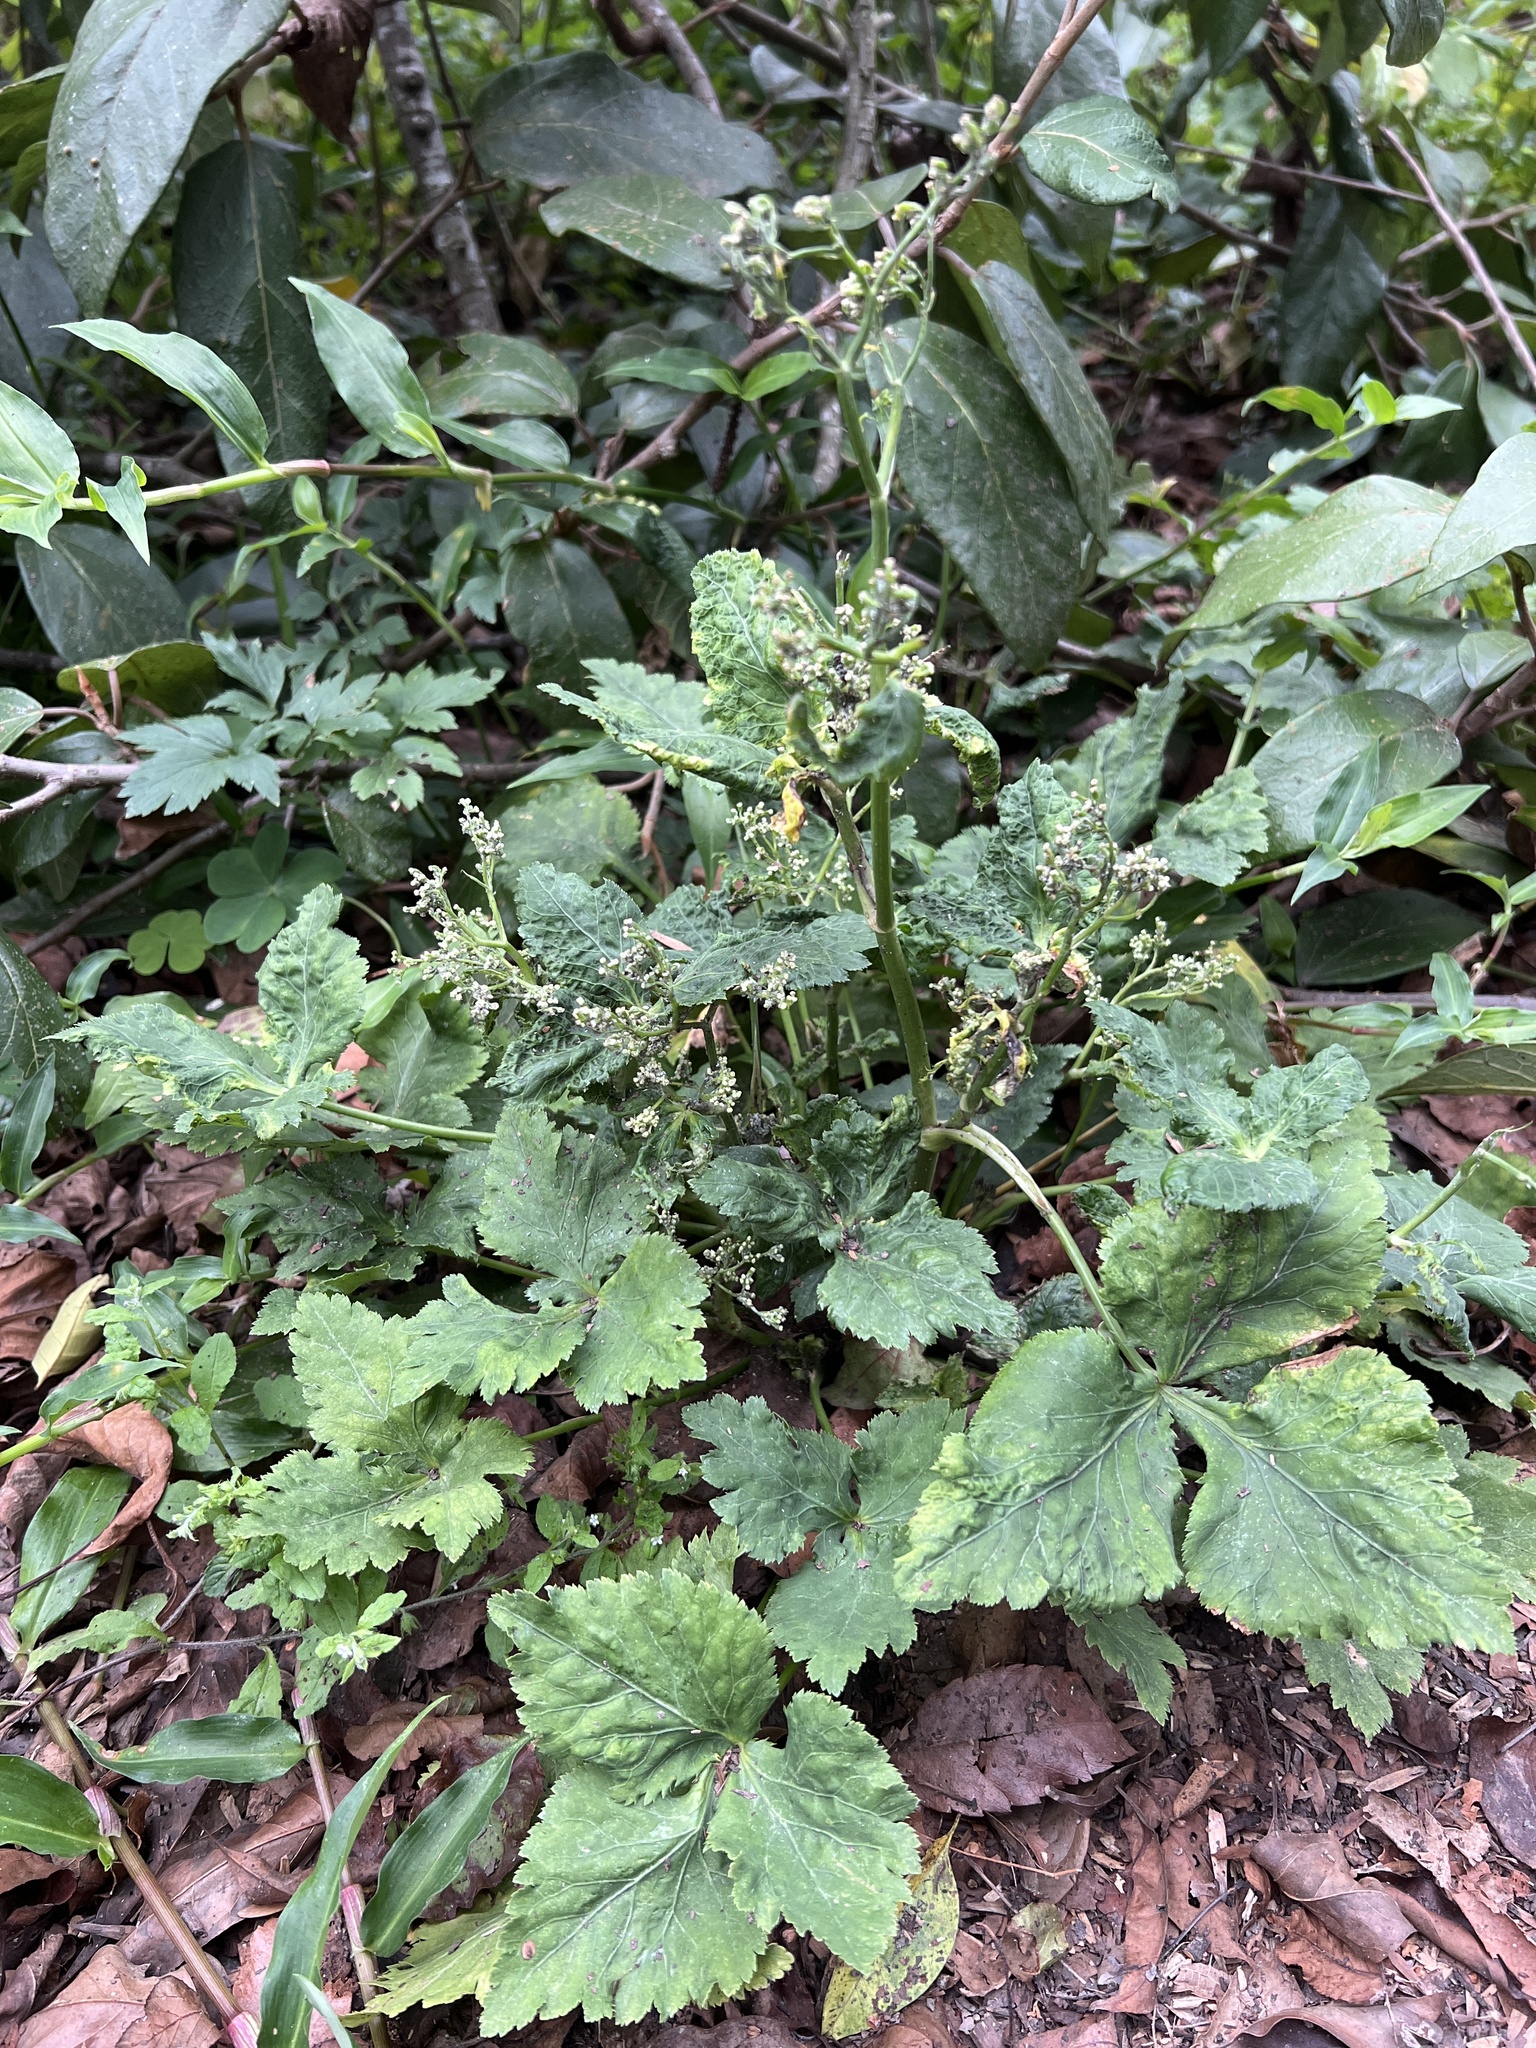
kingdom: Plantae
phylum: Tracheophyta
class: Magnoliopsida
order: Apiales
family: Apiaceae
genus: Cryptotaenia
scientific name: Cryptotaenia japonica
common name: Japanese cryptotaenia
